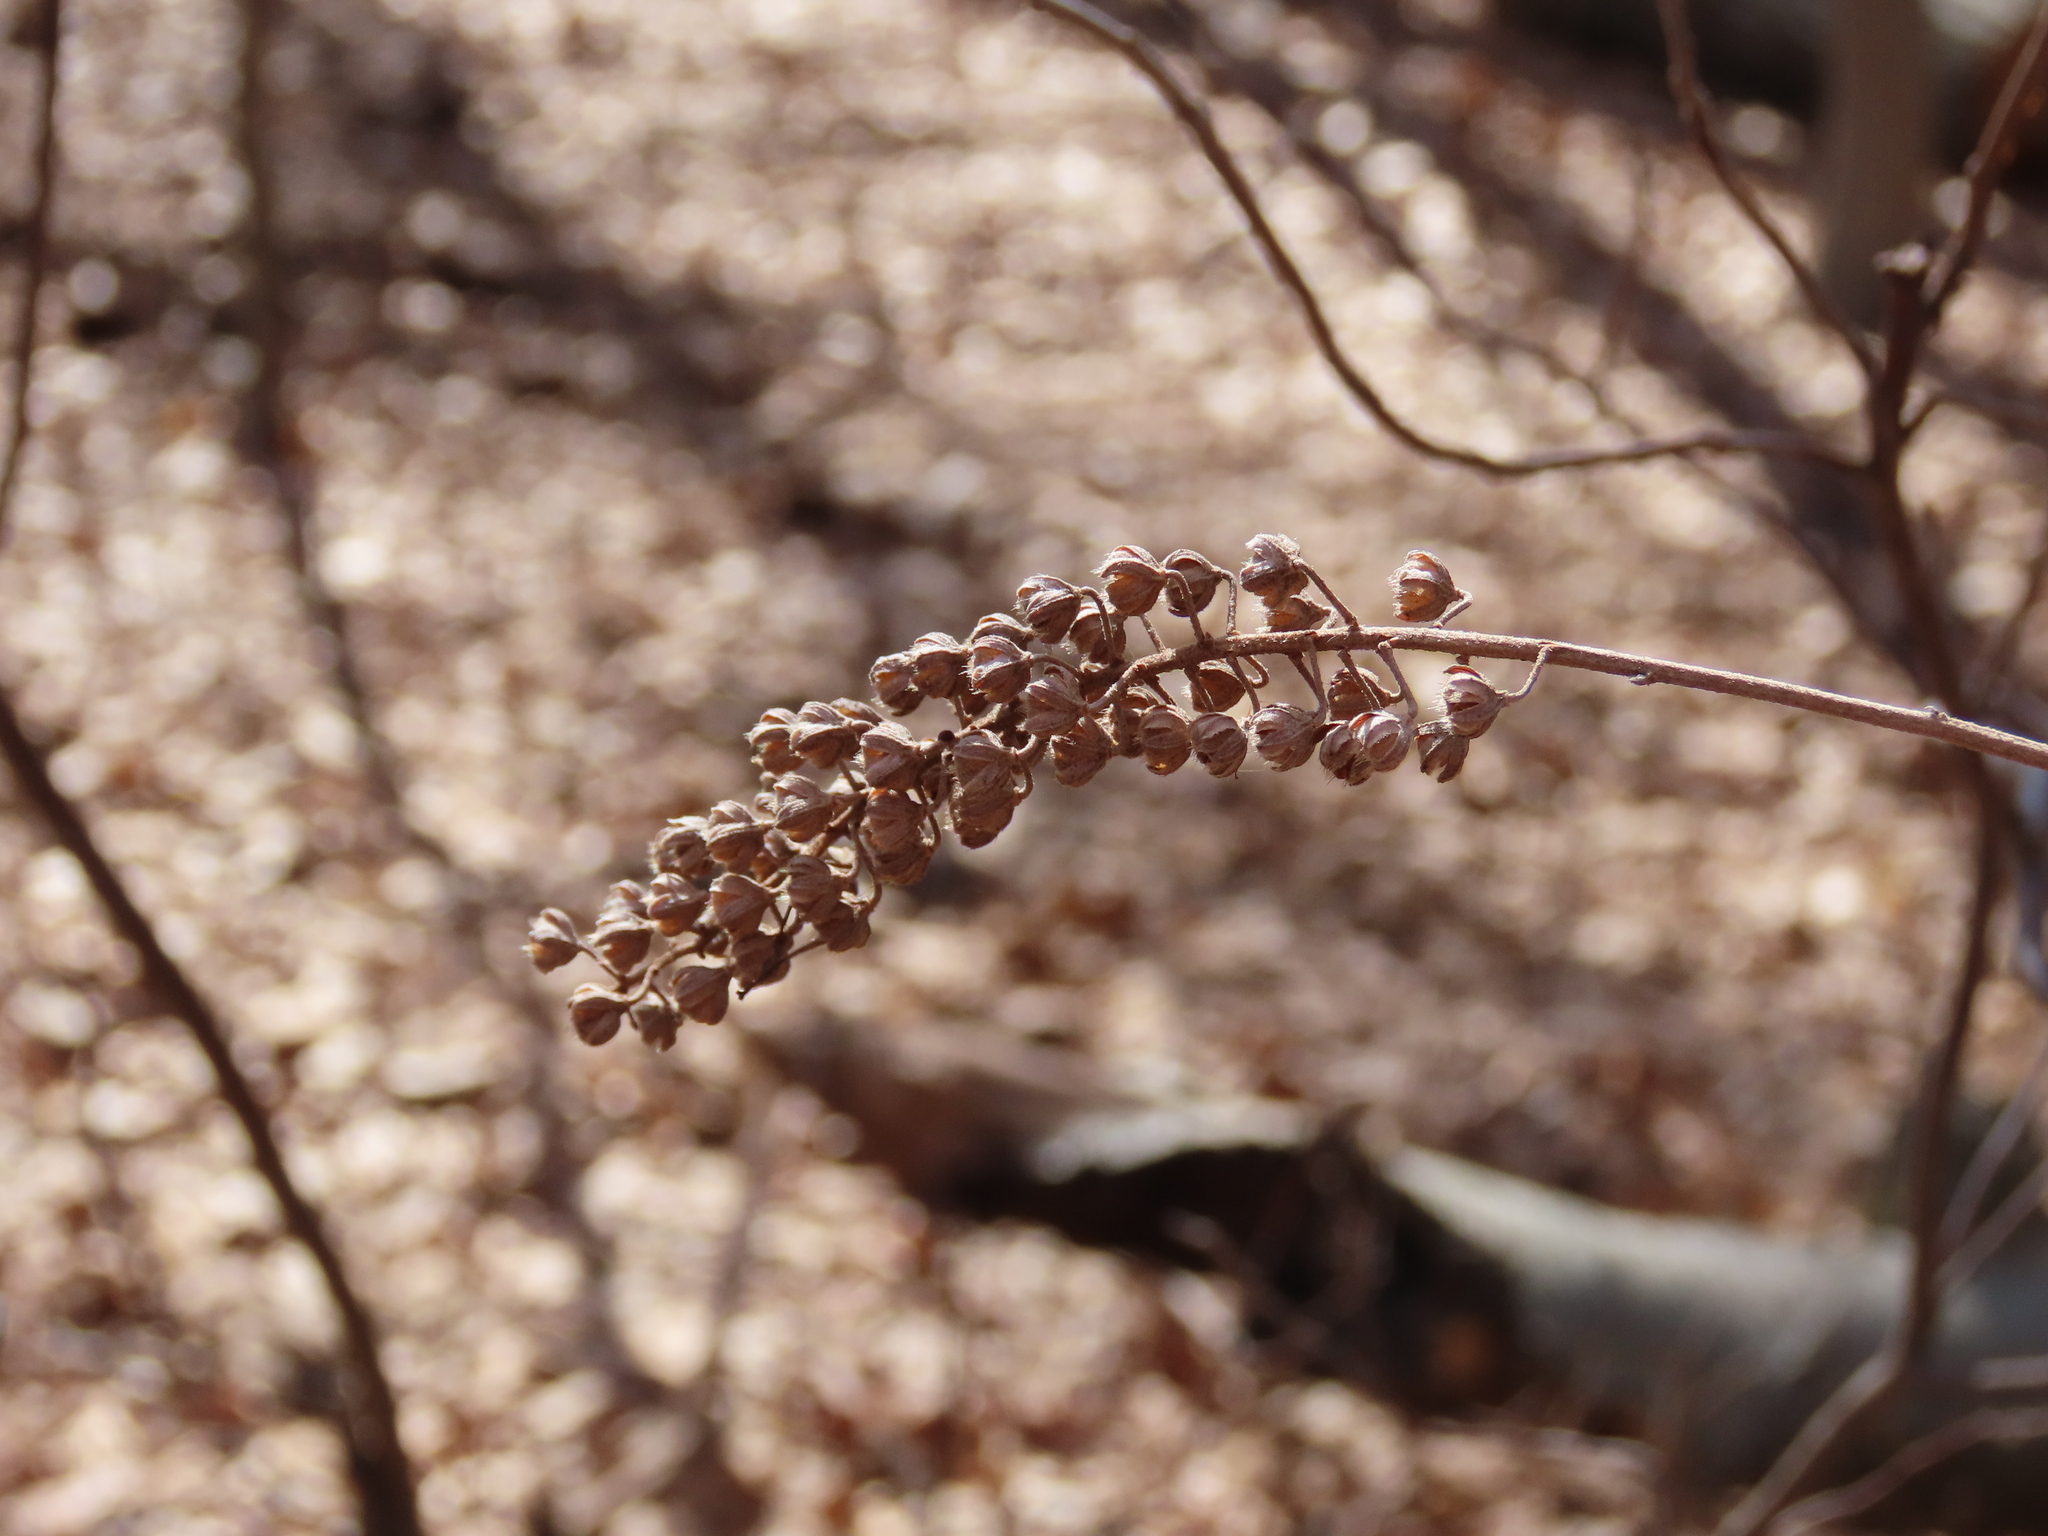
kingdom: Plantae
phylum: Tracheophyta
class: Magnoliopsida
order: Ericales
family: Clethraceae
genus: Clethra
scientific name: Clethra alnifolia
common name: Sweet pepperbush
